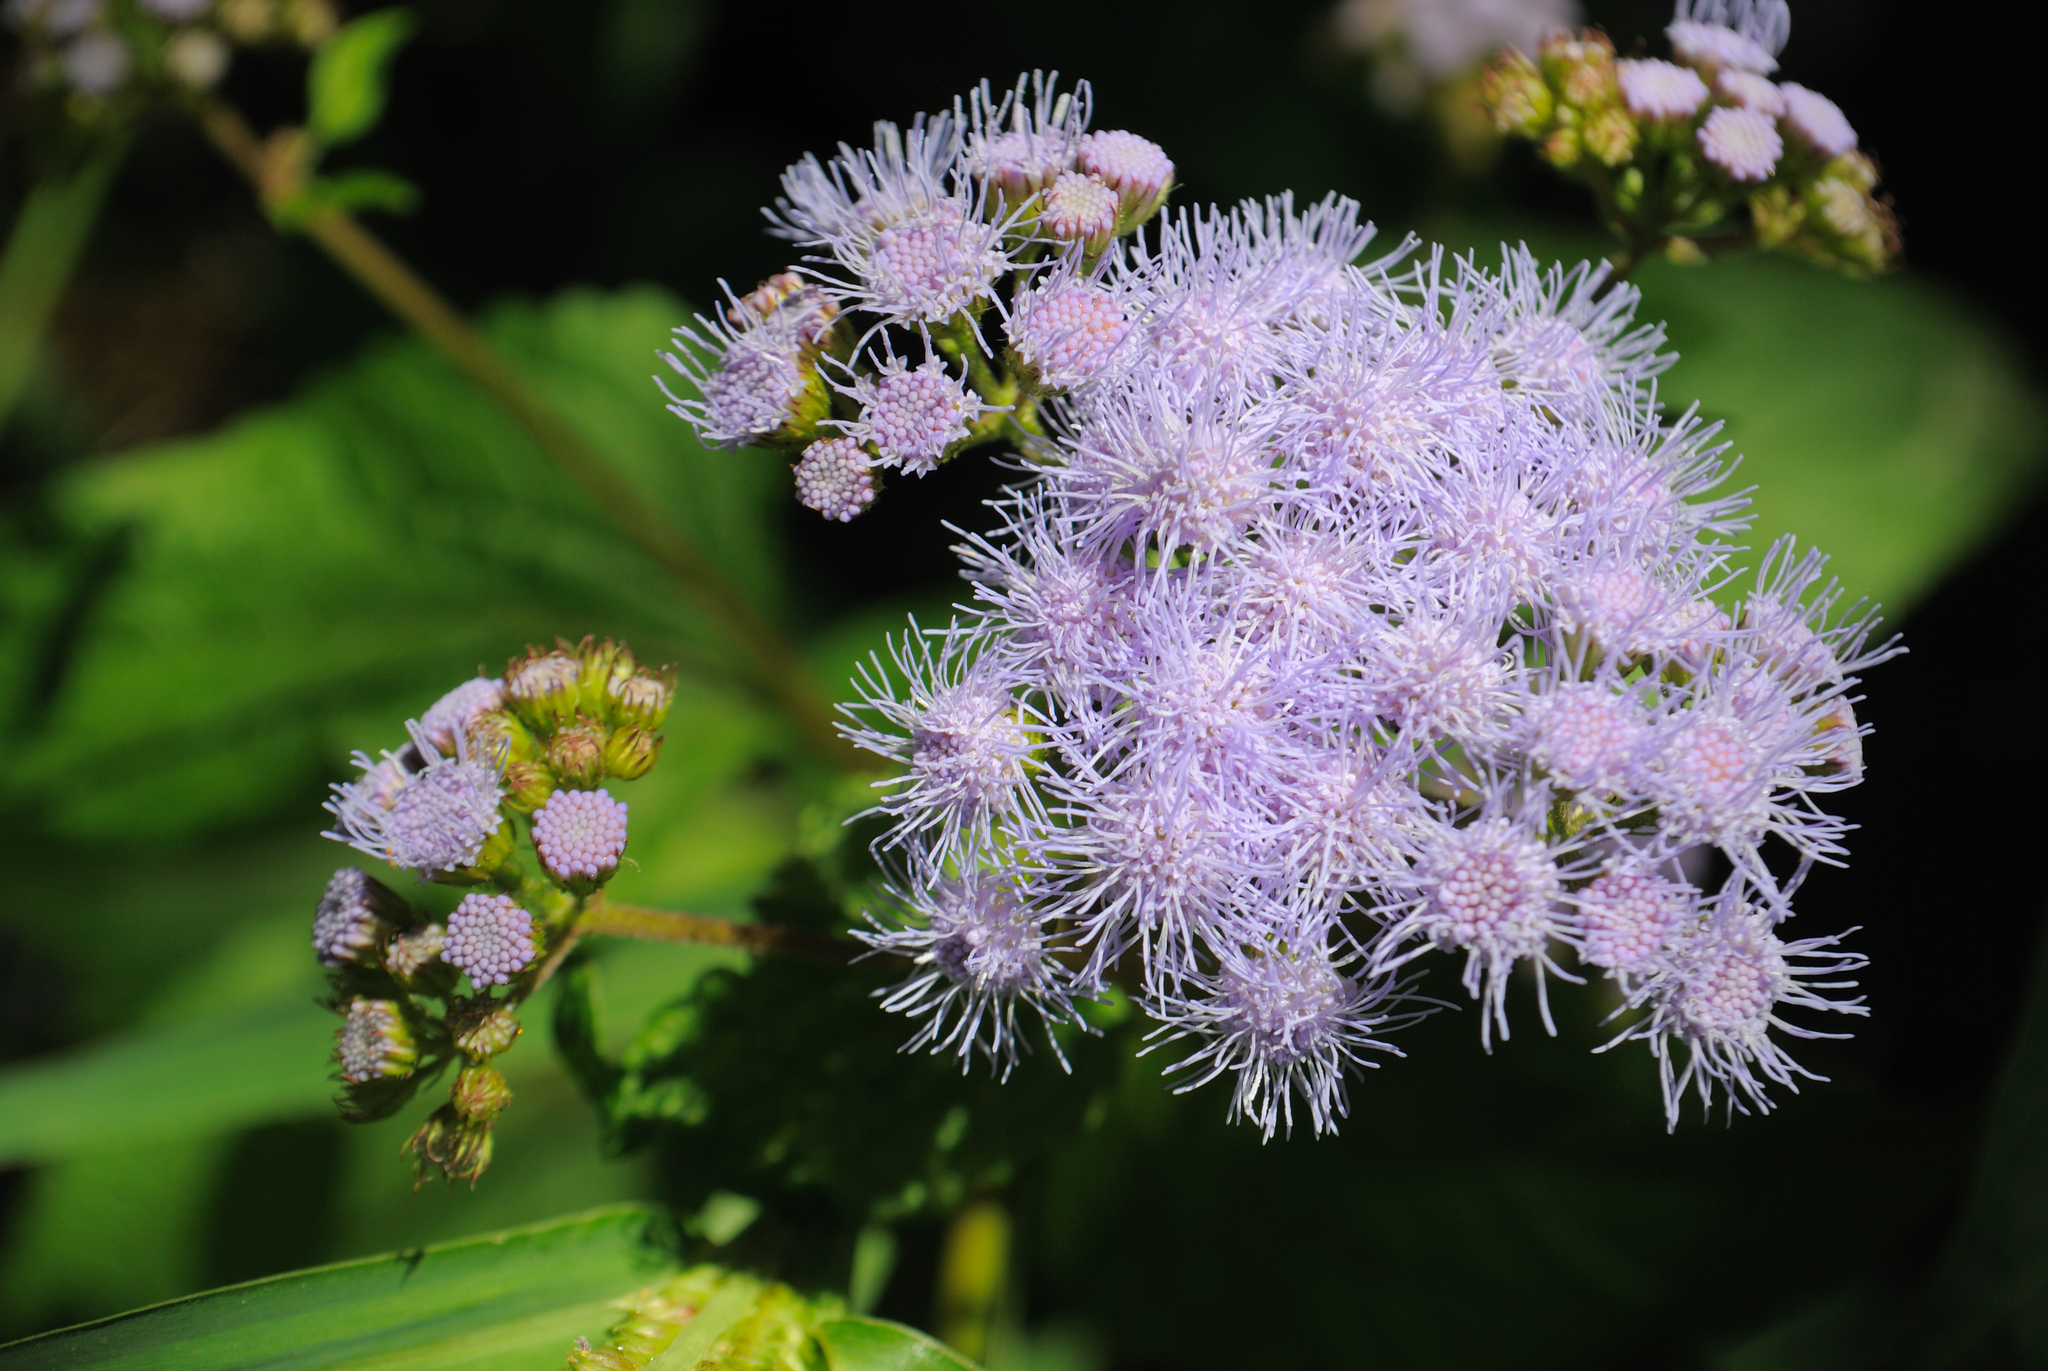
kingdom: Plantae
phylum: Tracheophyta
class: Magnoliopsida
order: Asterales
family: Asteraceae
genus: Conoclinium
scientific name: Conoclinium coelestinum
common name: Blue mistflower
